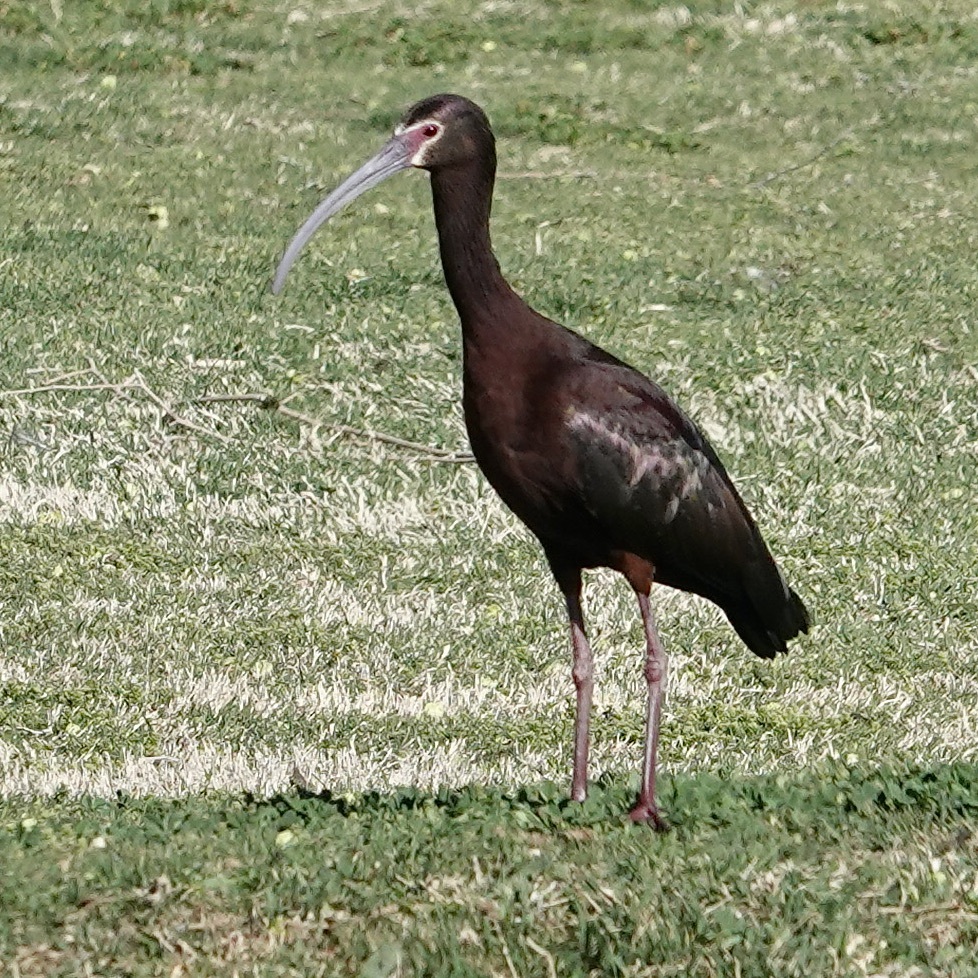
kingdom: Animalia
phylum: Chordata
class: Aves
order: Pelecaniformes
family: Threskiornithidae
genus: Plegadis
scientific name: Plegadis chihi
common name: White-faced ibis
